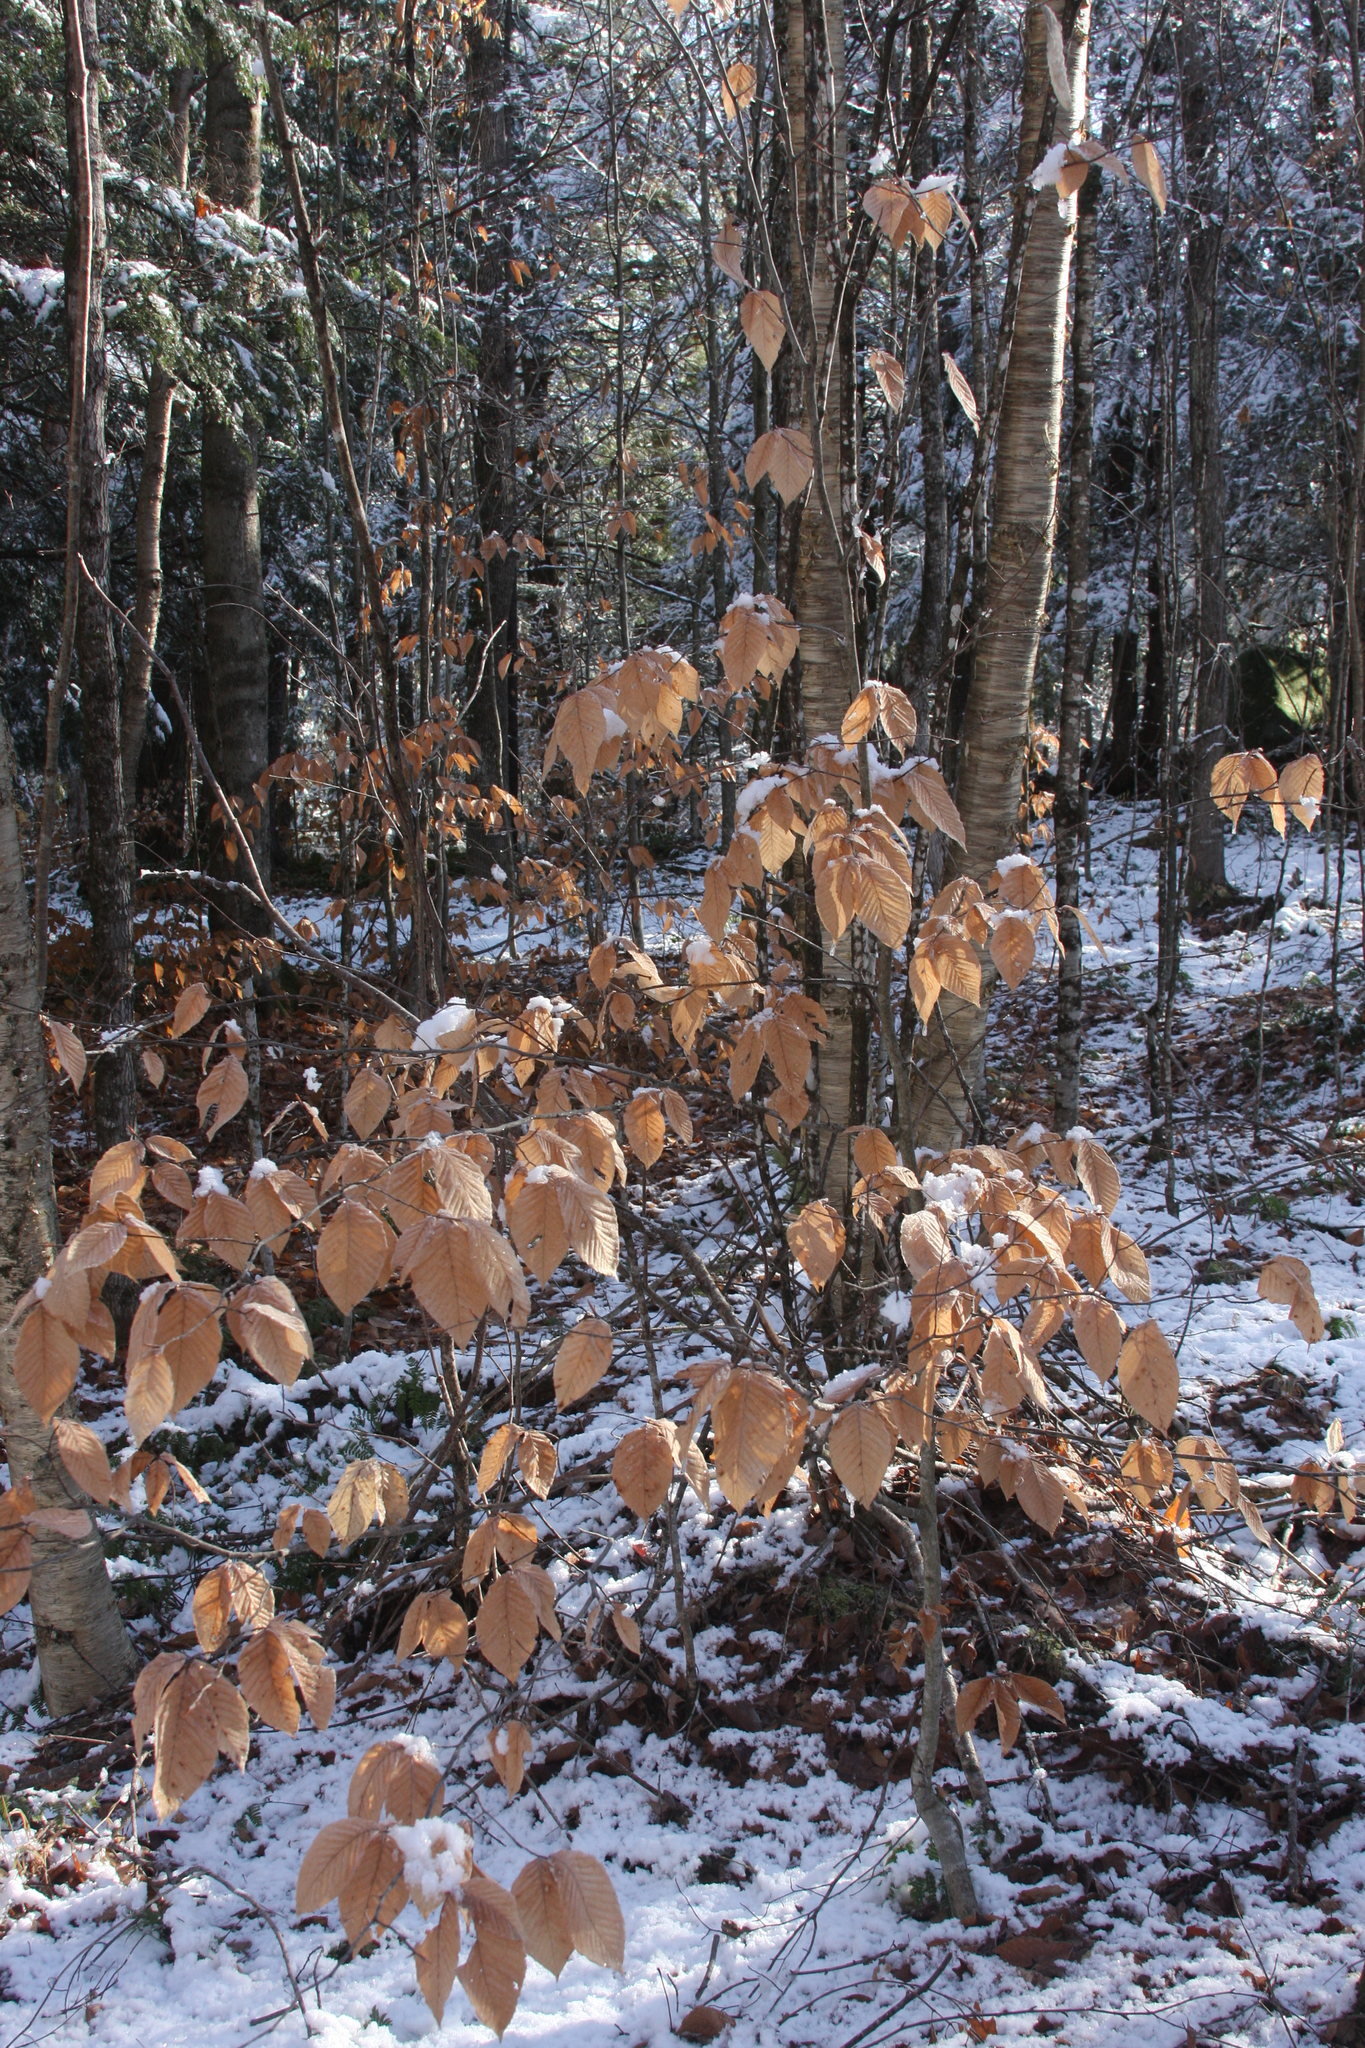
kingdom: Plantae
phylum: Tracheophyta
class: Magnoliopsida
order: Fagales
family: Fagaceae
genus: Fagus
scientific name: Fagus grandifolia
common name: American beech
